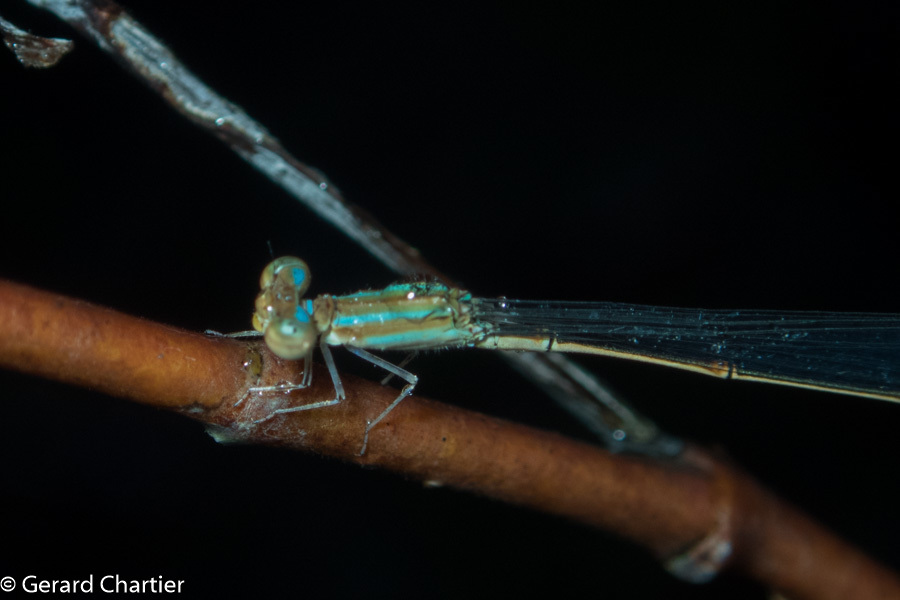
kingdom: Animalia
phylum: Arthropoda
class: Insecta
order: Odonata
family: Coenagrionidae
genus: Aciagrion
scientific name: Aciagrion hisopa
